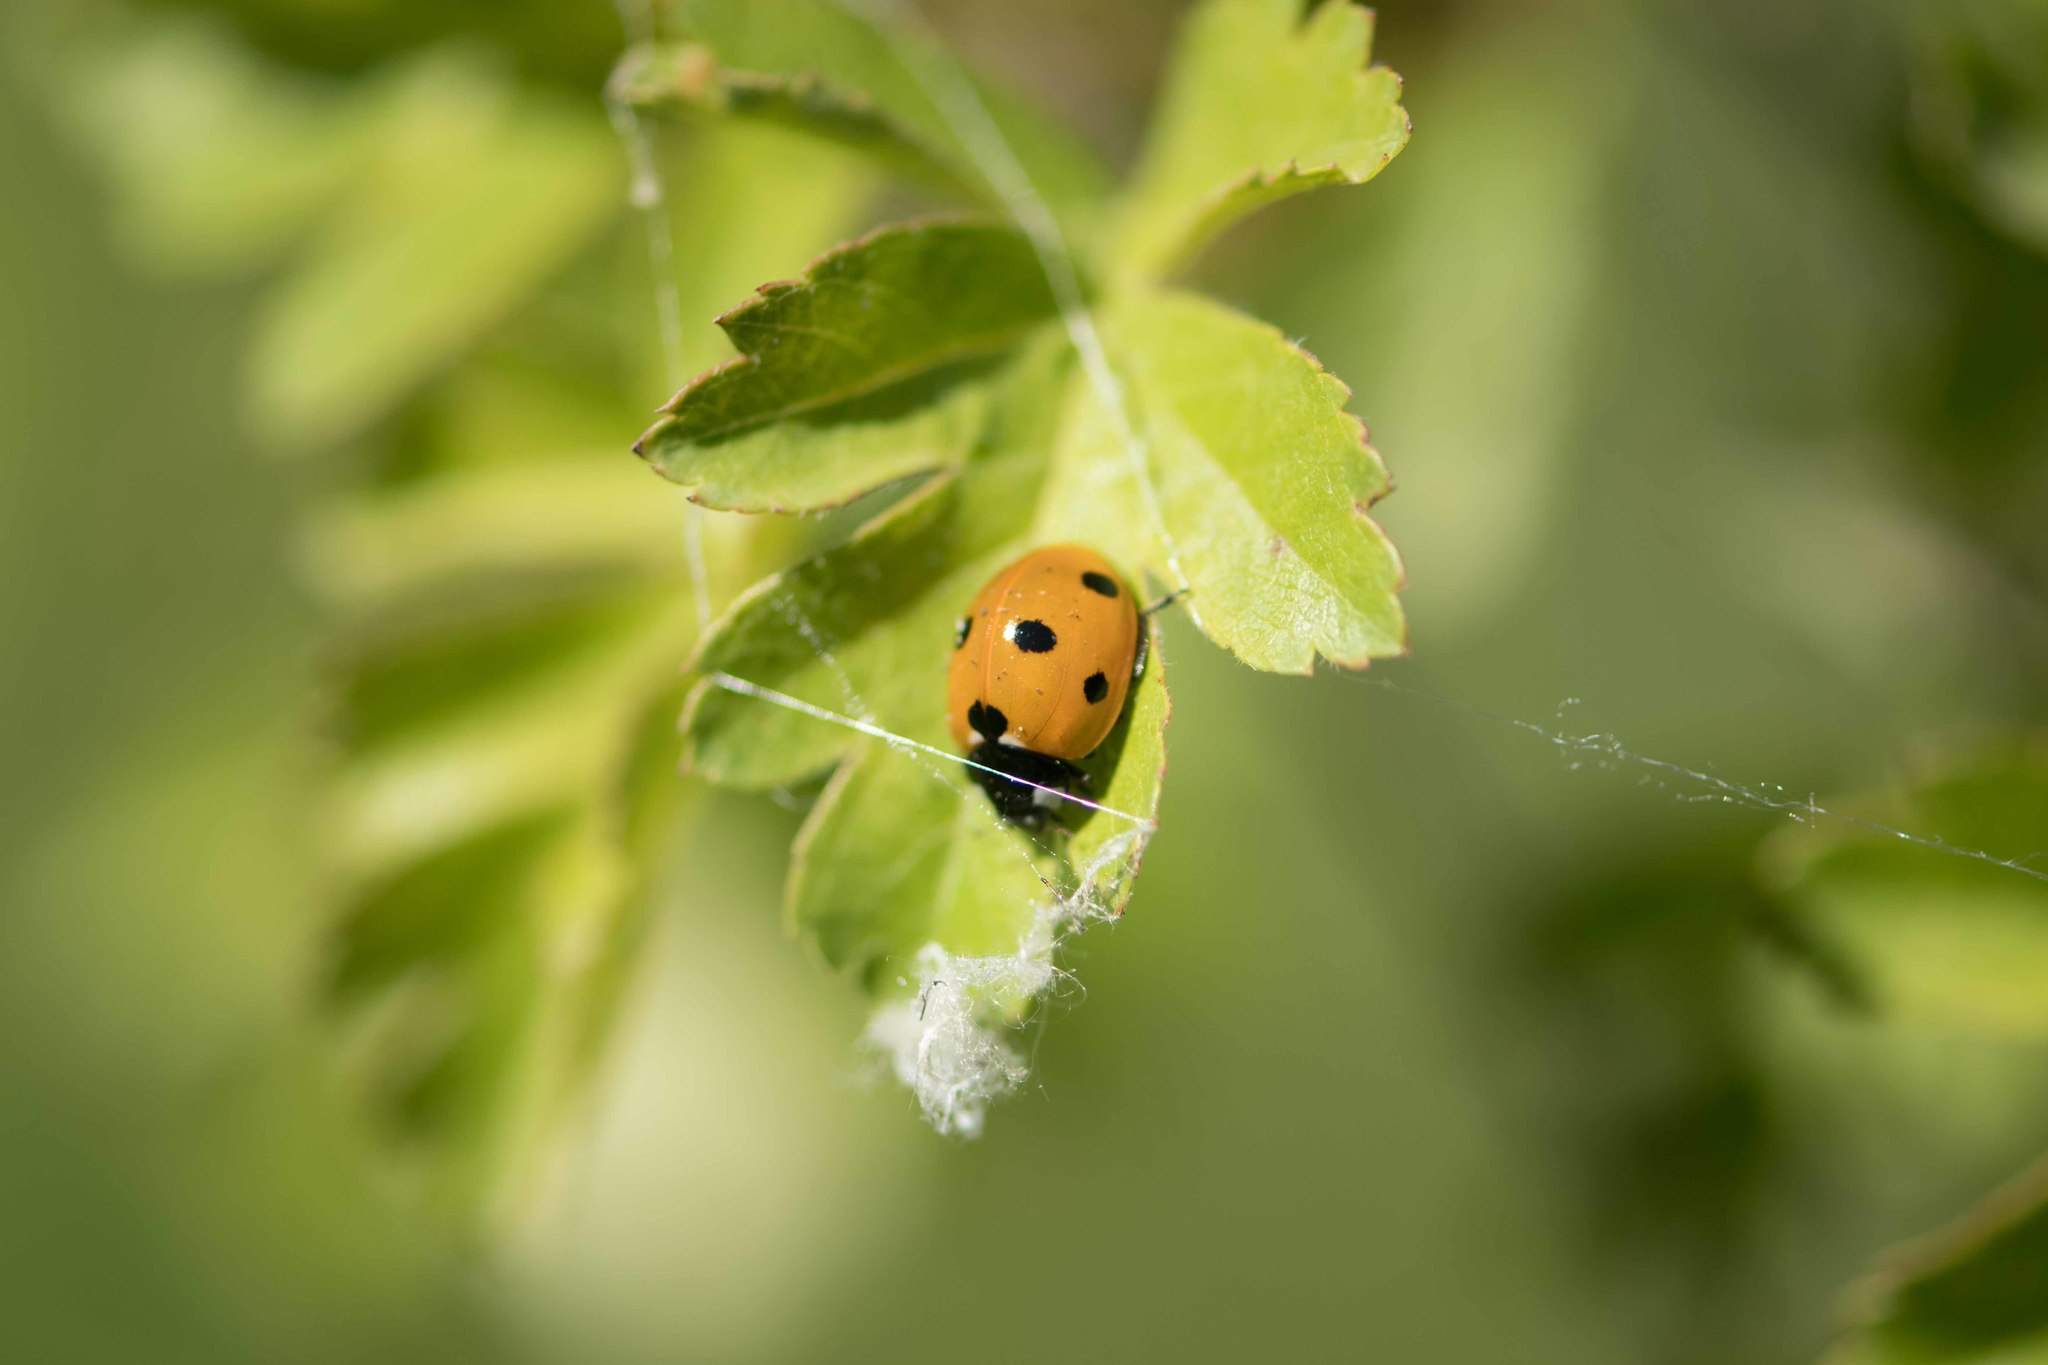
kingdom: Animalia
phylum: Arthropoda
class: Insecta
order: Coleoptera
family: Coccinellidae
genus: Coccinella
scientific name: Coccinella septempunctata
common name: Sevenspotted lady beetle
